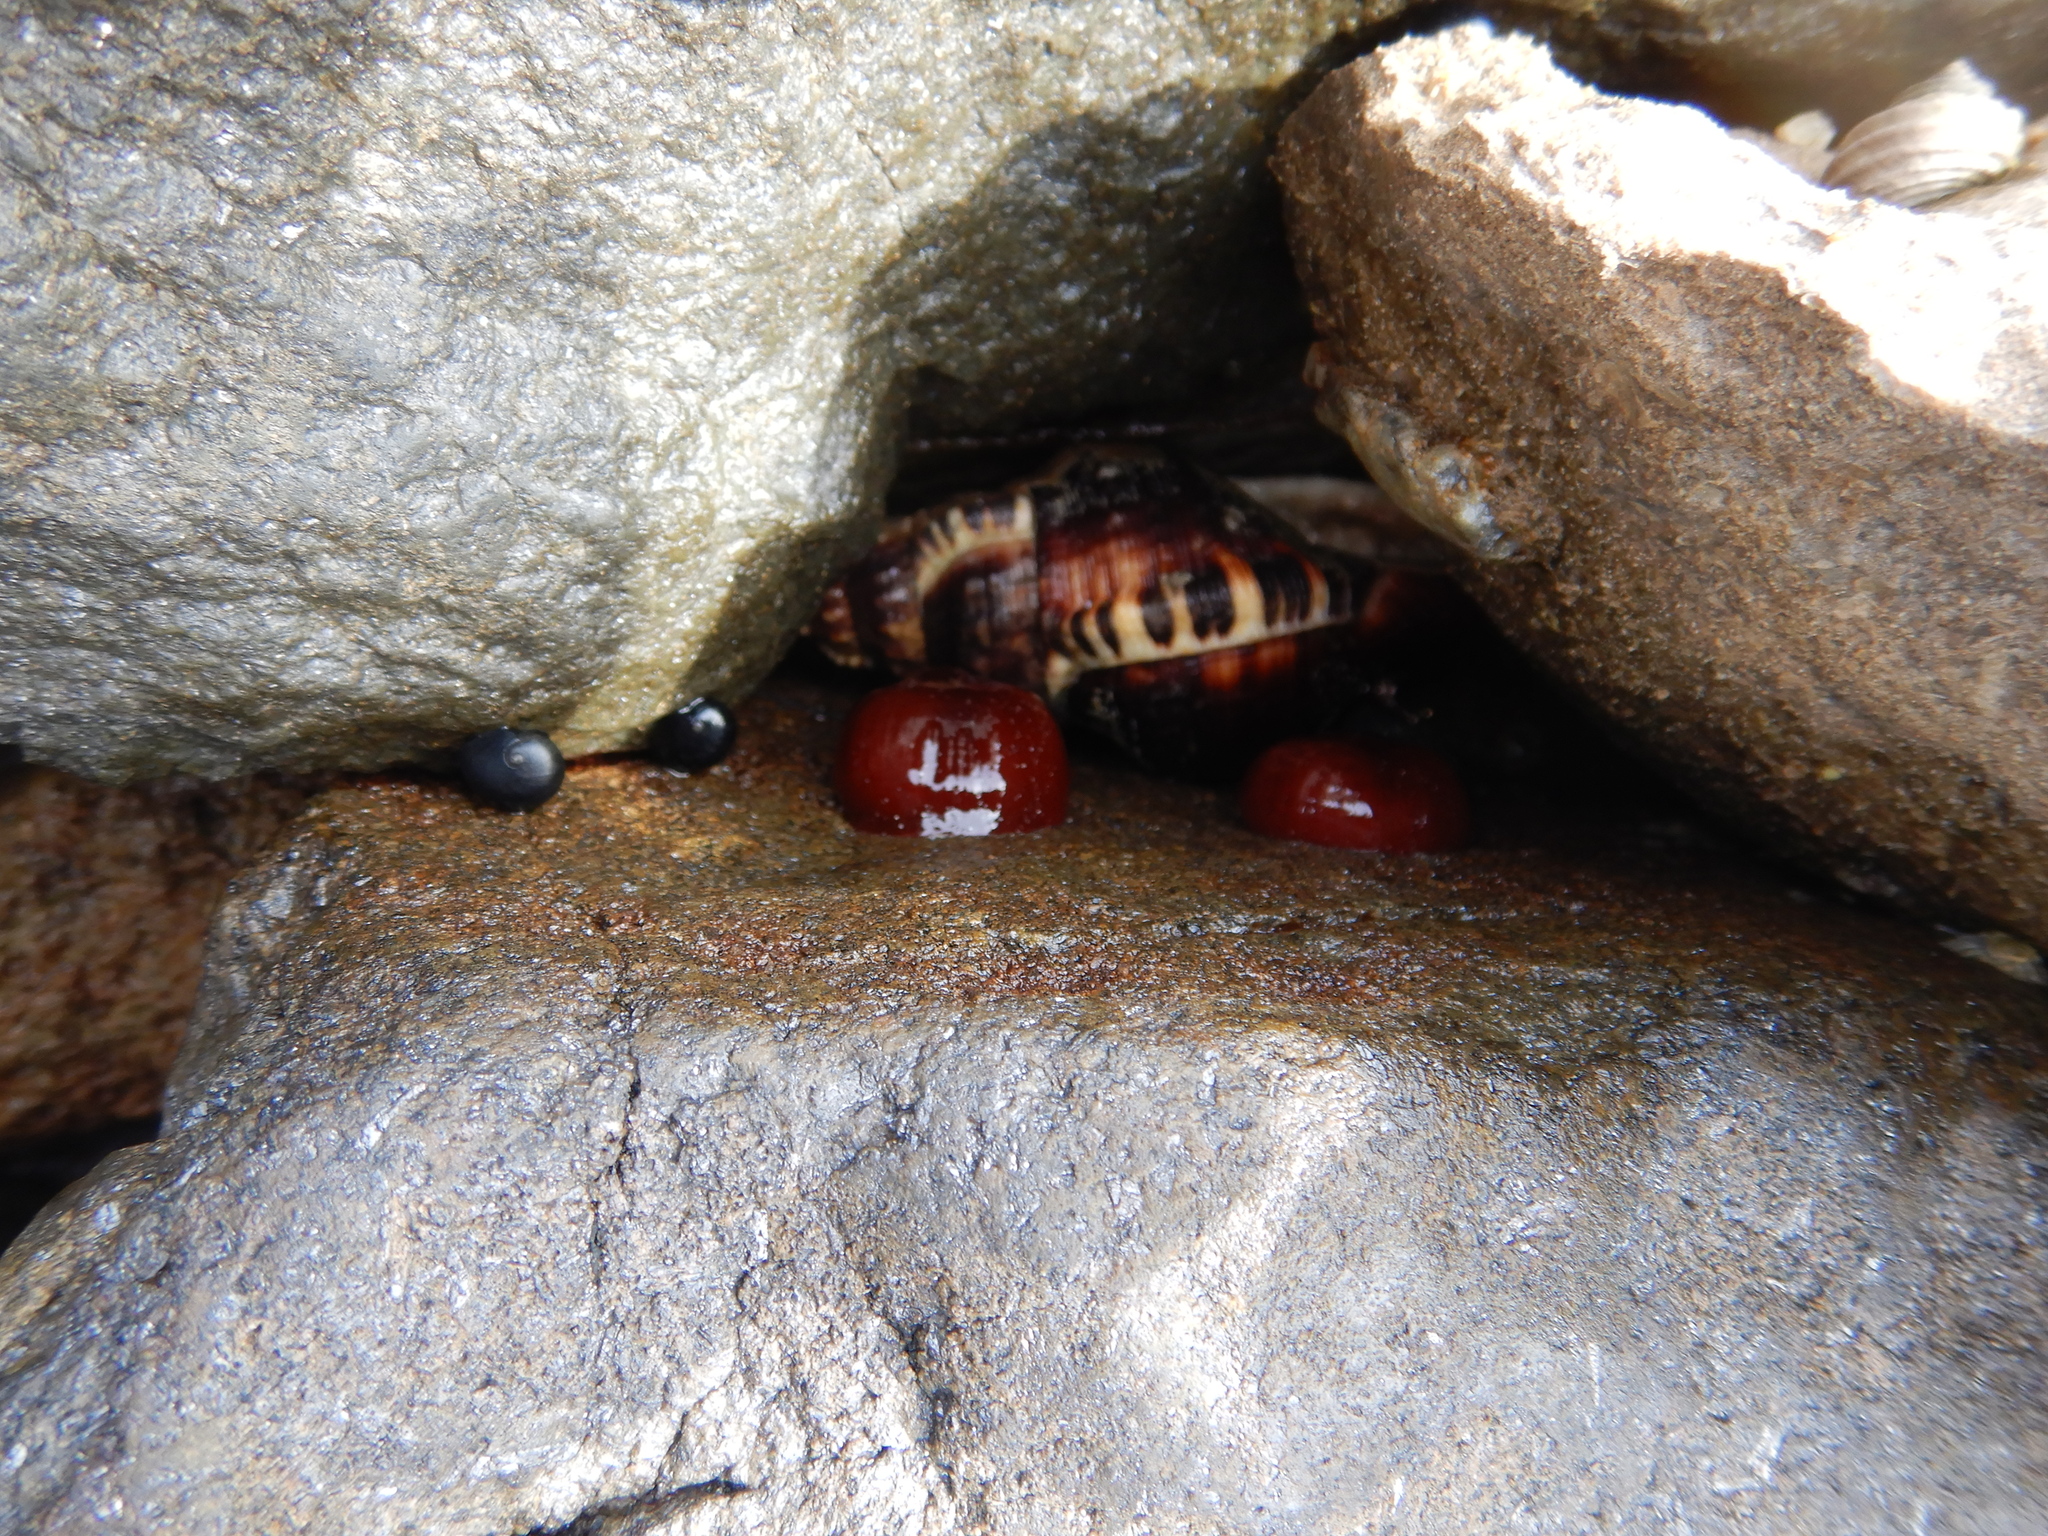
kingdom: Animalia
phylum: Mollusca
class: Gastropoda
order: Littorinimorpha
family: Ranellidae
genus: Ranella
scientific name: Ranella australasia
